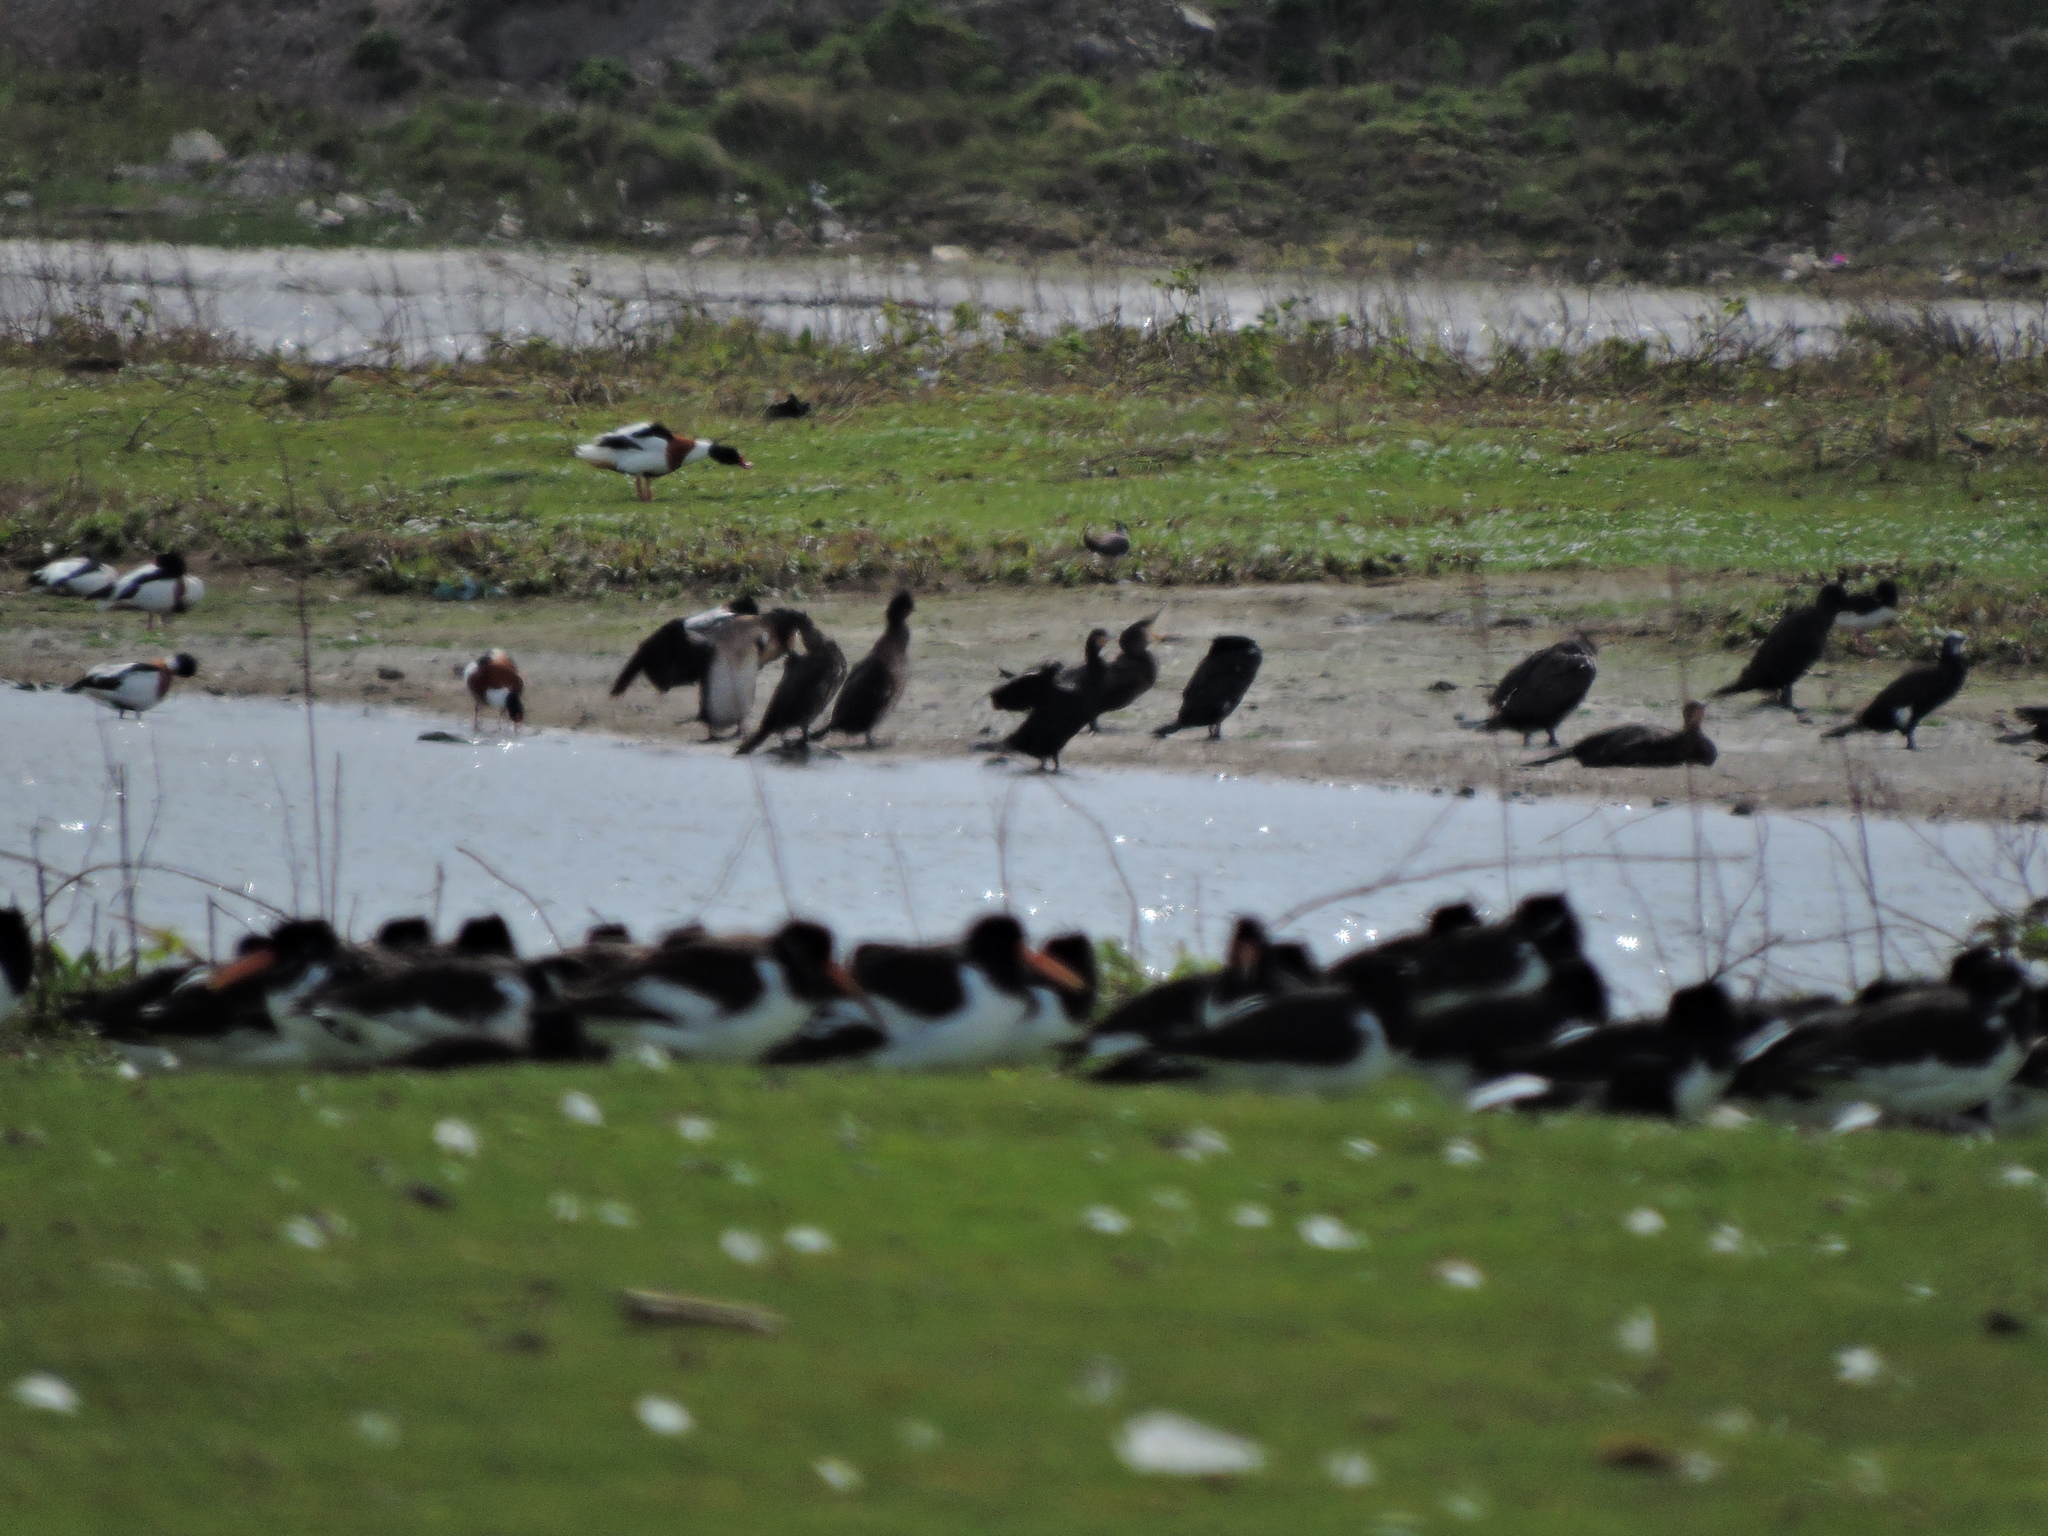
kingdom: Animalia
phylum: Chordata
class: Aves
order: Anseriformes
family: Anatidae
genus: Tadorna
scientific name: Tadorna tadorna
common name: Common shelduck
